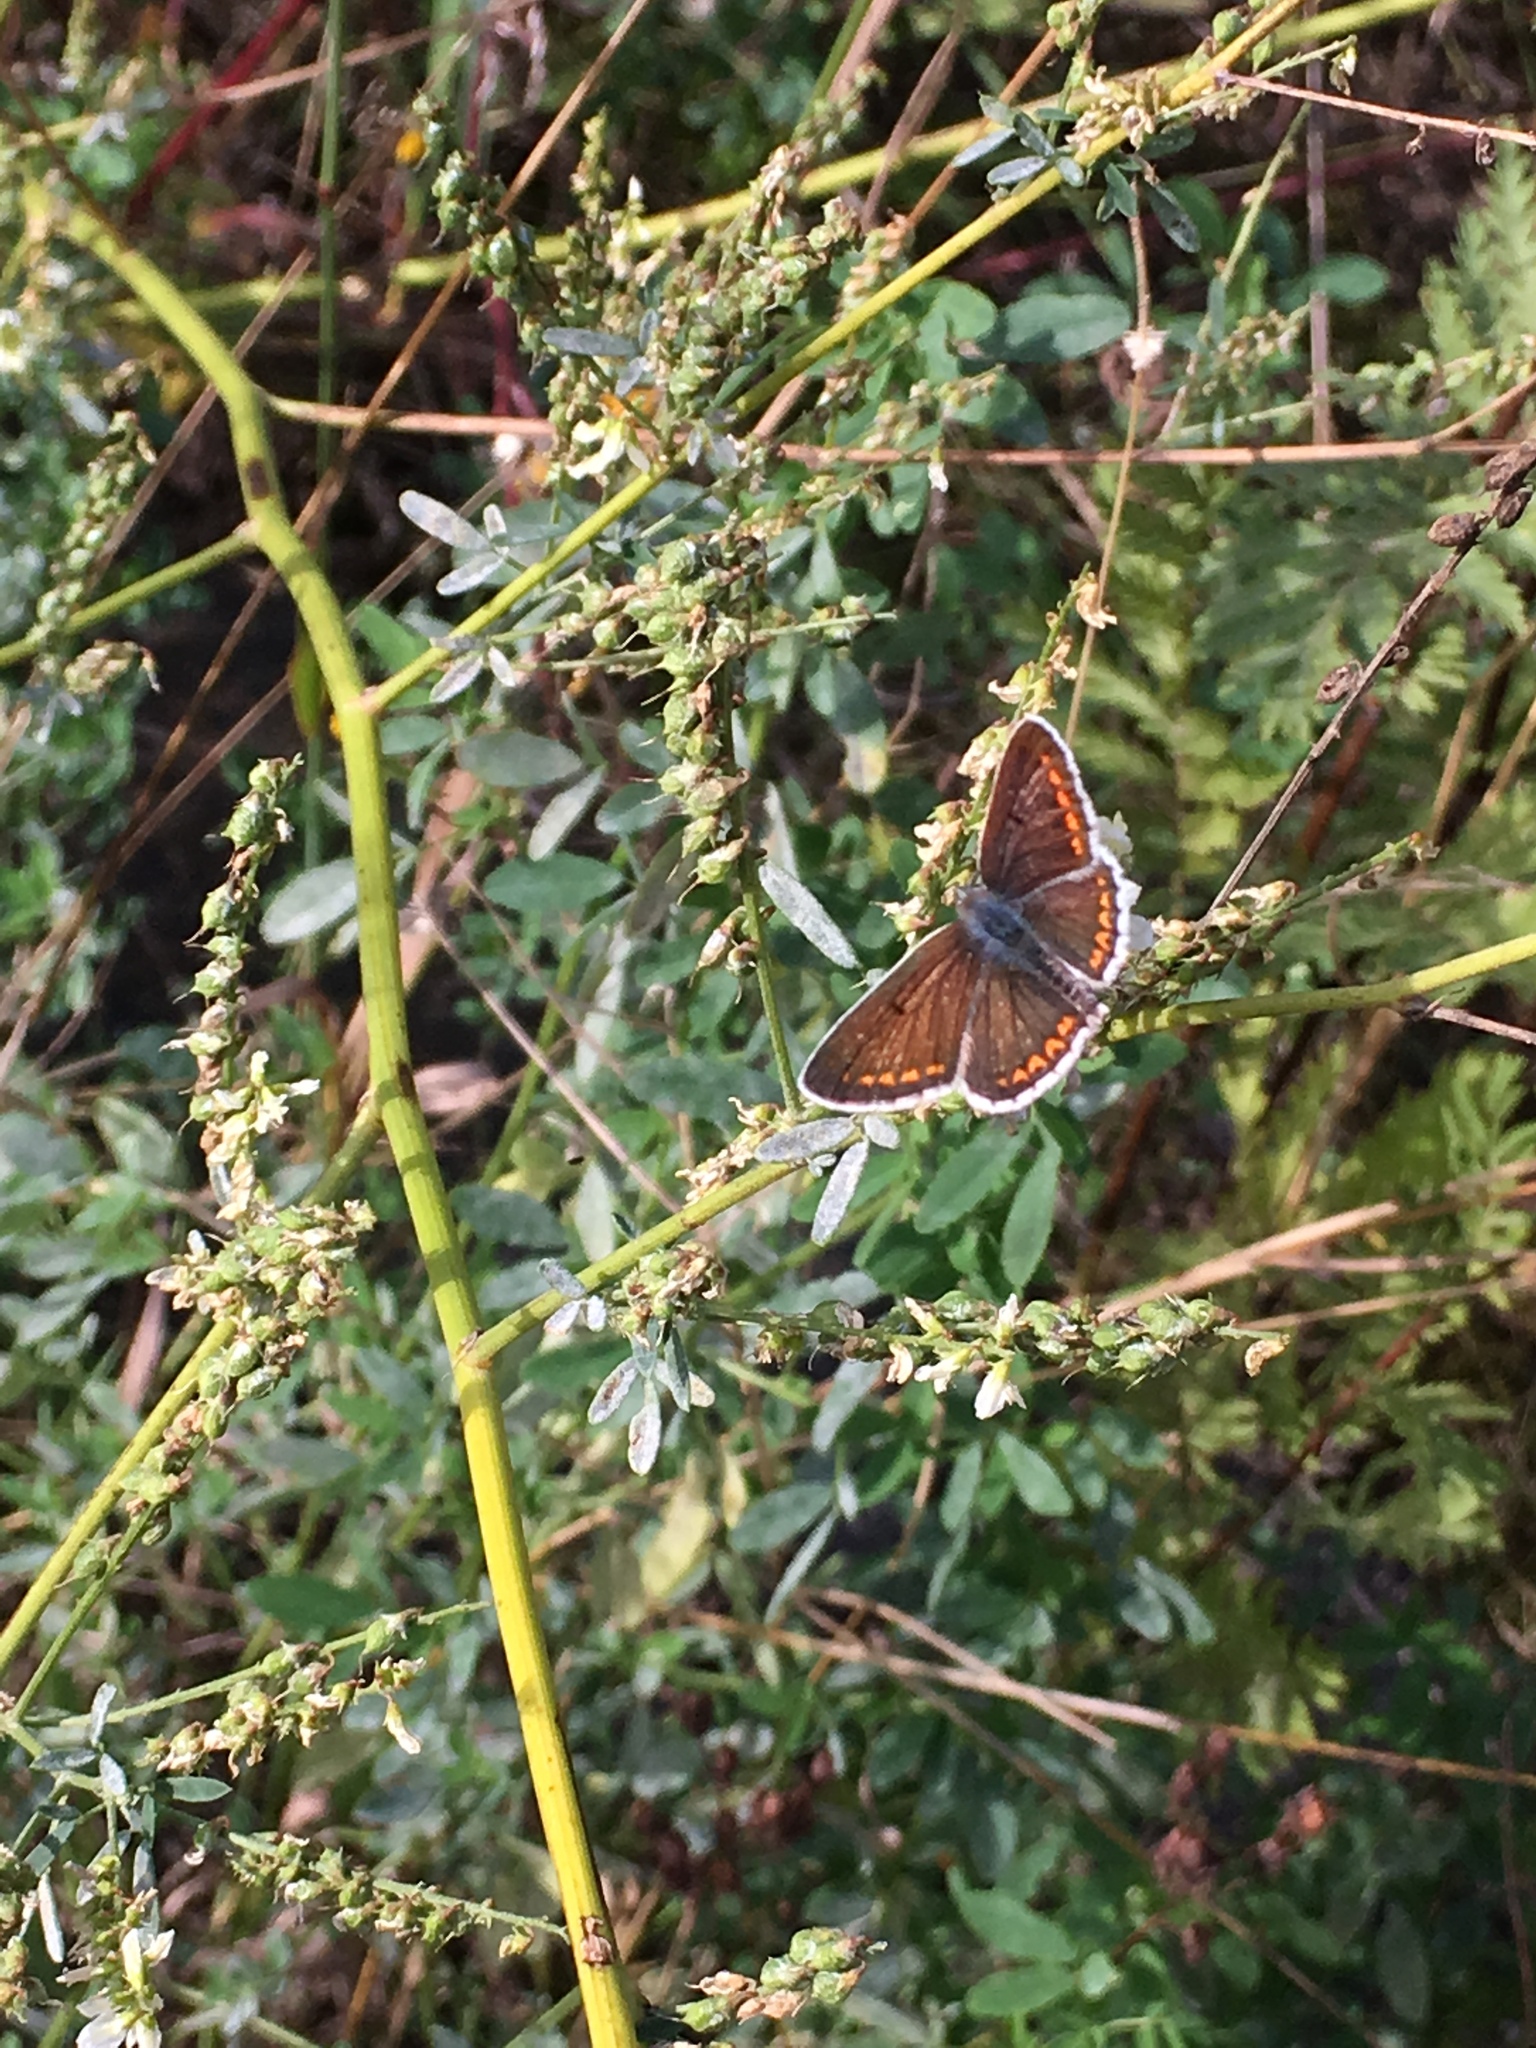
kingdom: Animalia
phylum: Arthropoda
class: Insecta
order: Lepidoptera
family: Lycaenidae
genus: Aricia
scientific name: Aricia agestis
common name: Brown argus
